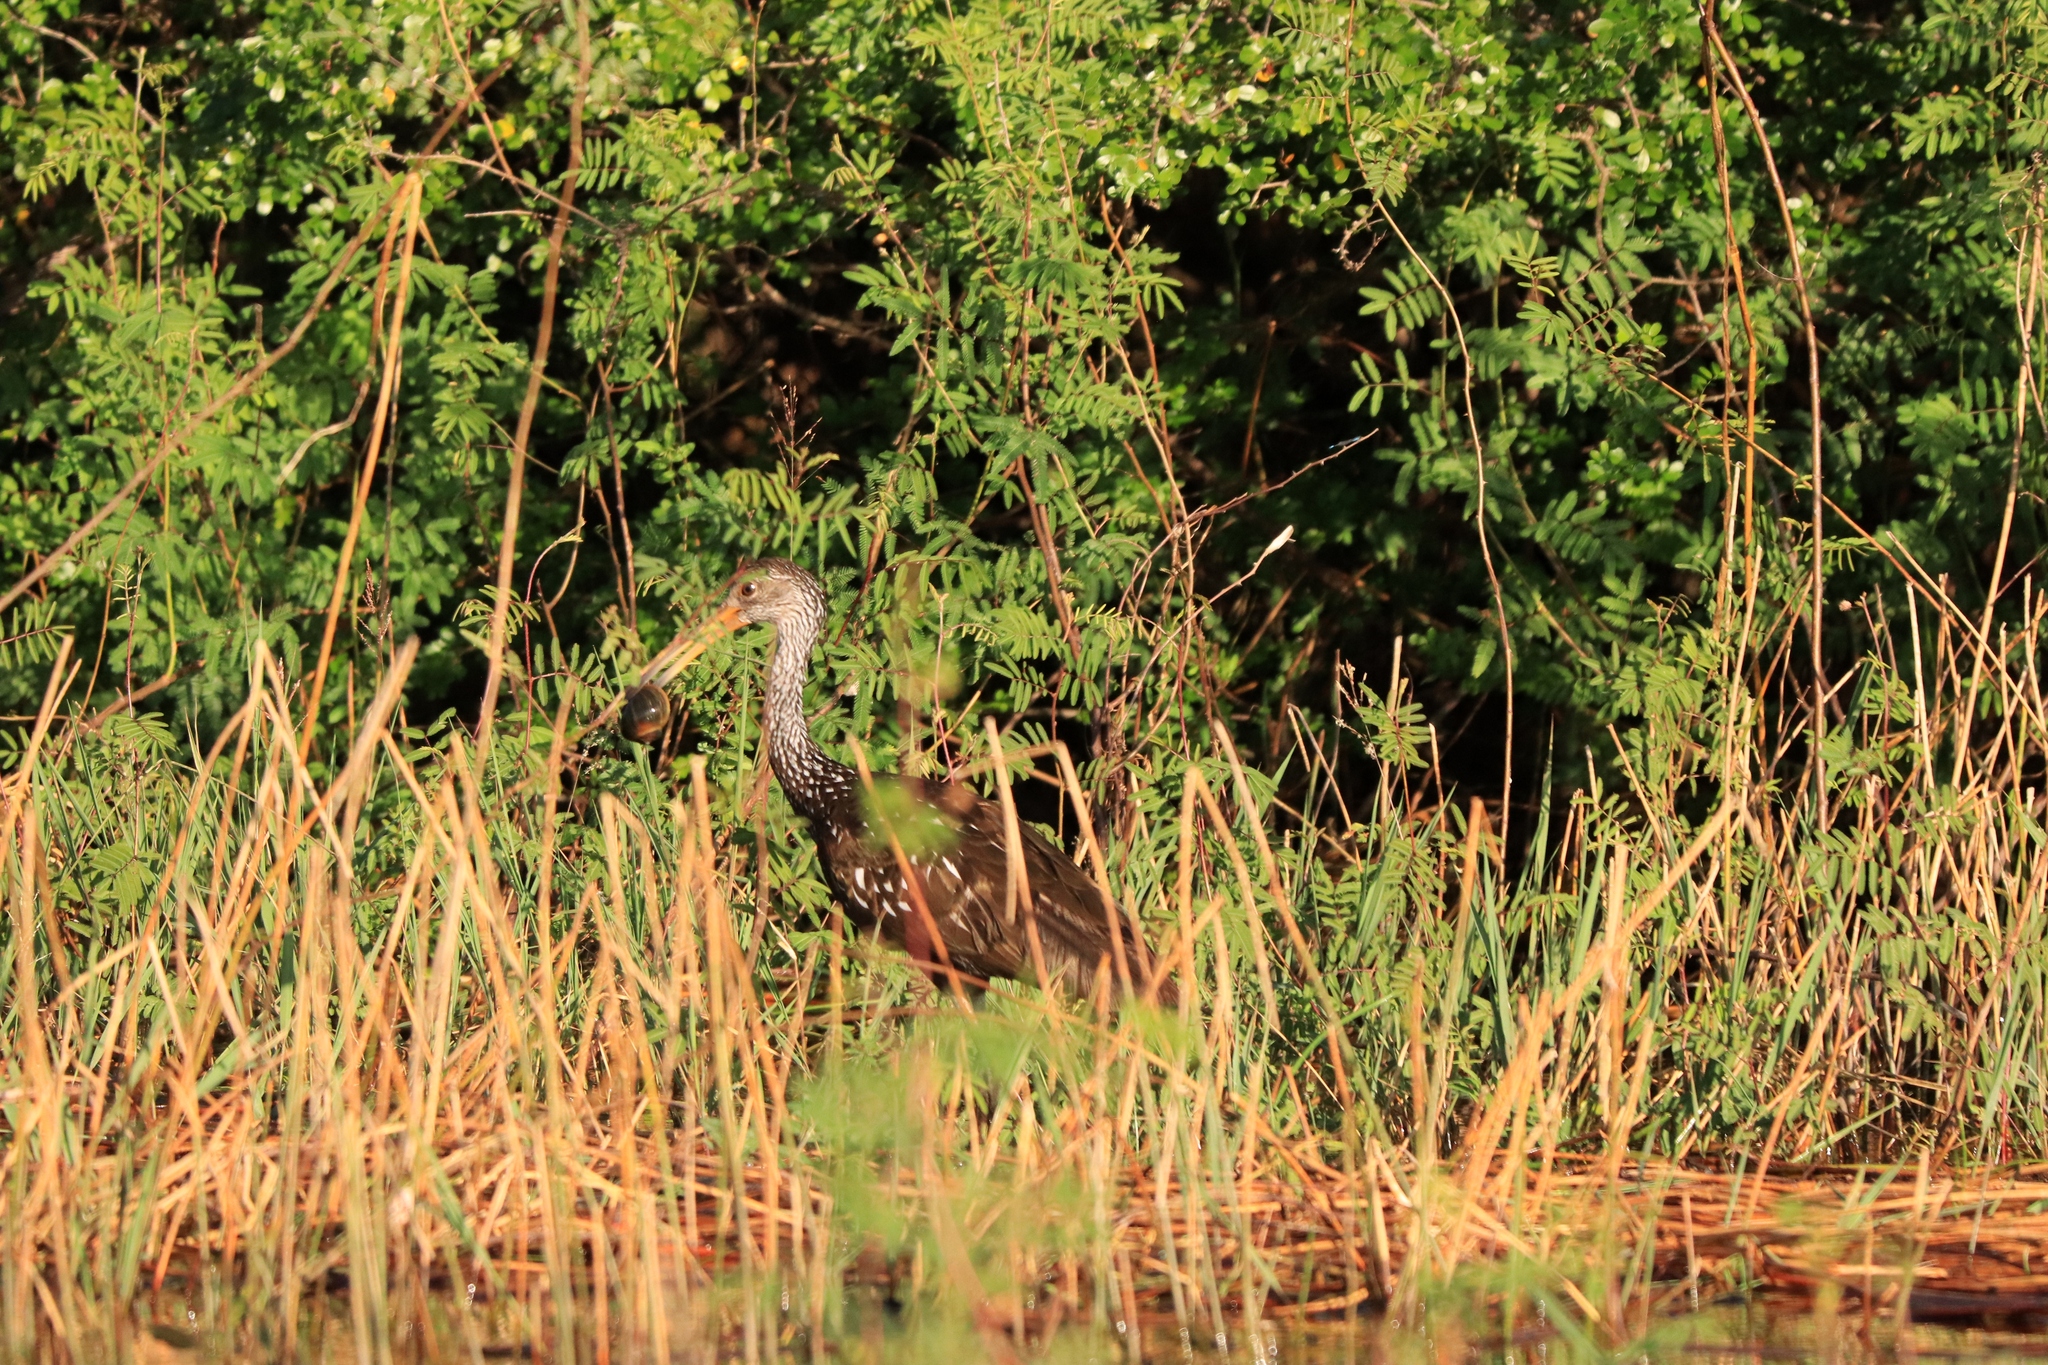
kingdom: Animalia
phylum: Chordata
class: Aves
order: Gruiformes
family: Aramidae
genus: Aramus
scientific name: Aramus guarauna
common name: Limpkin
